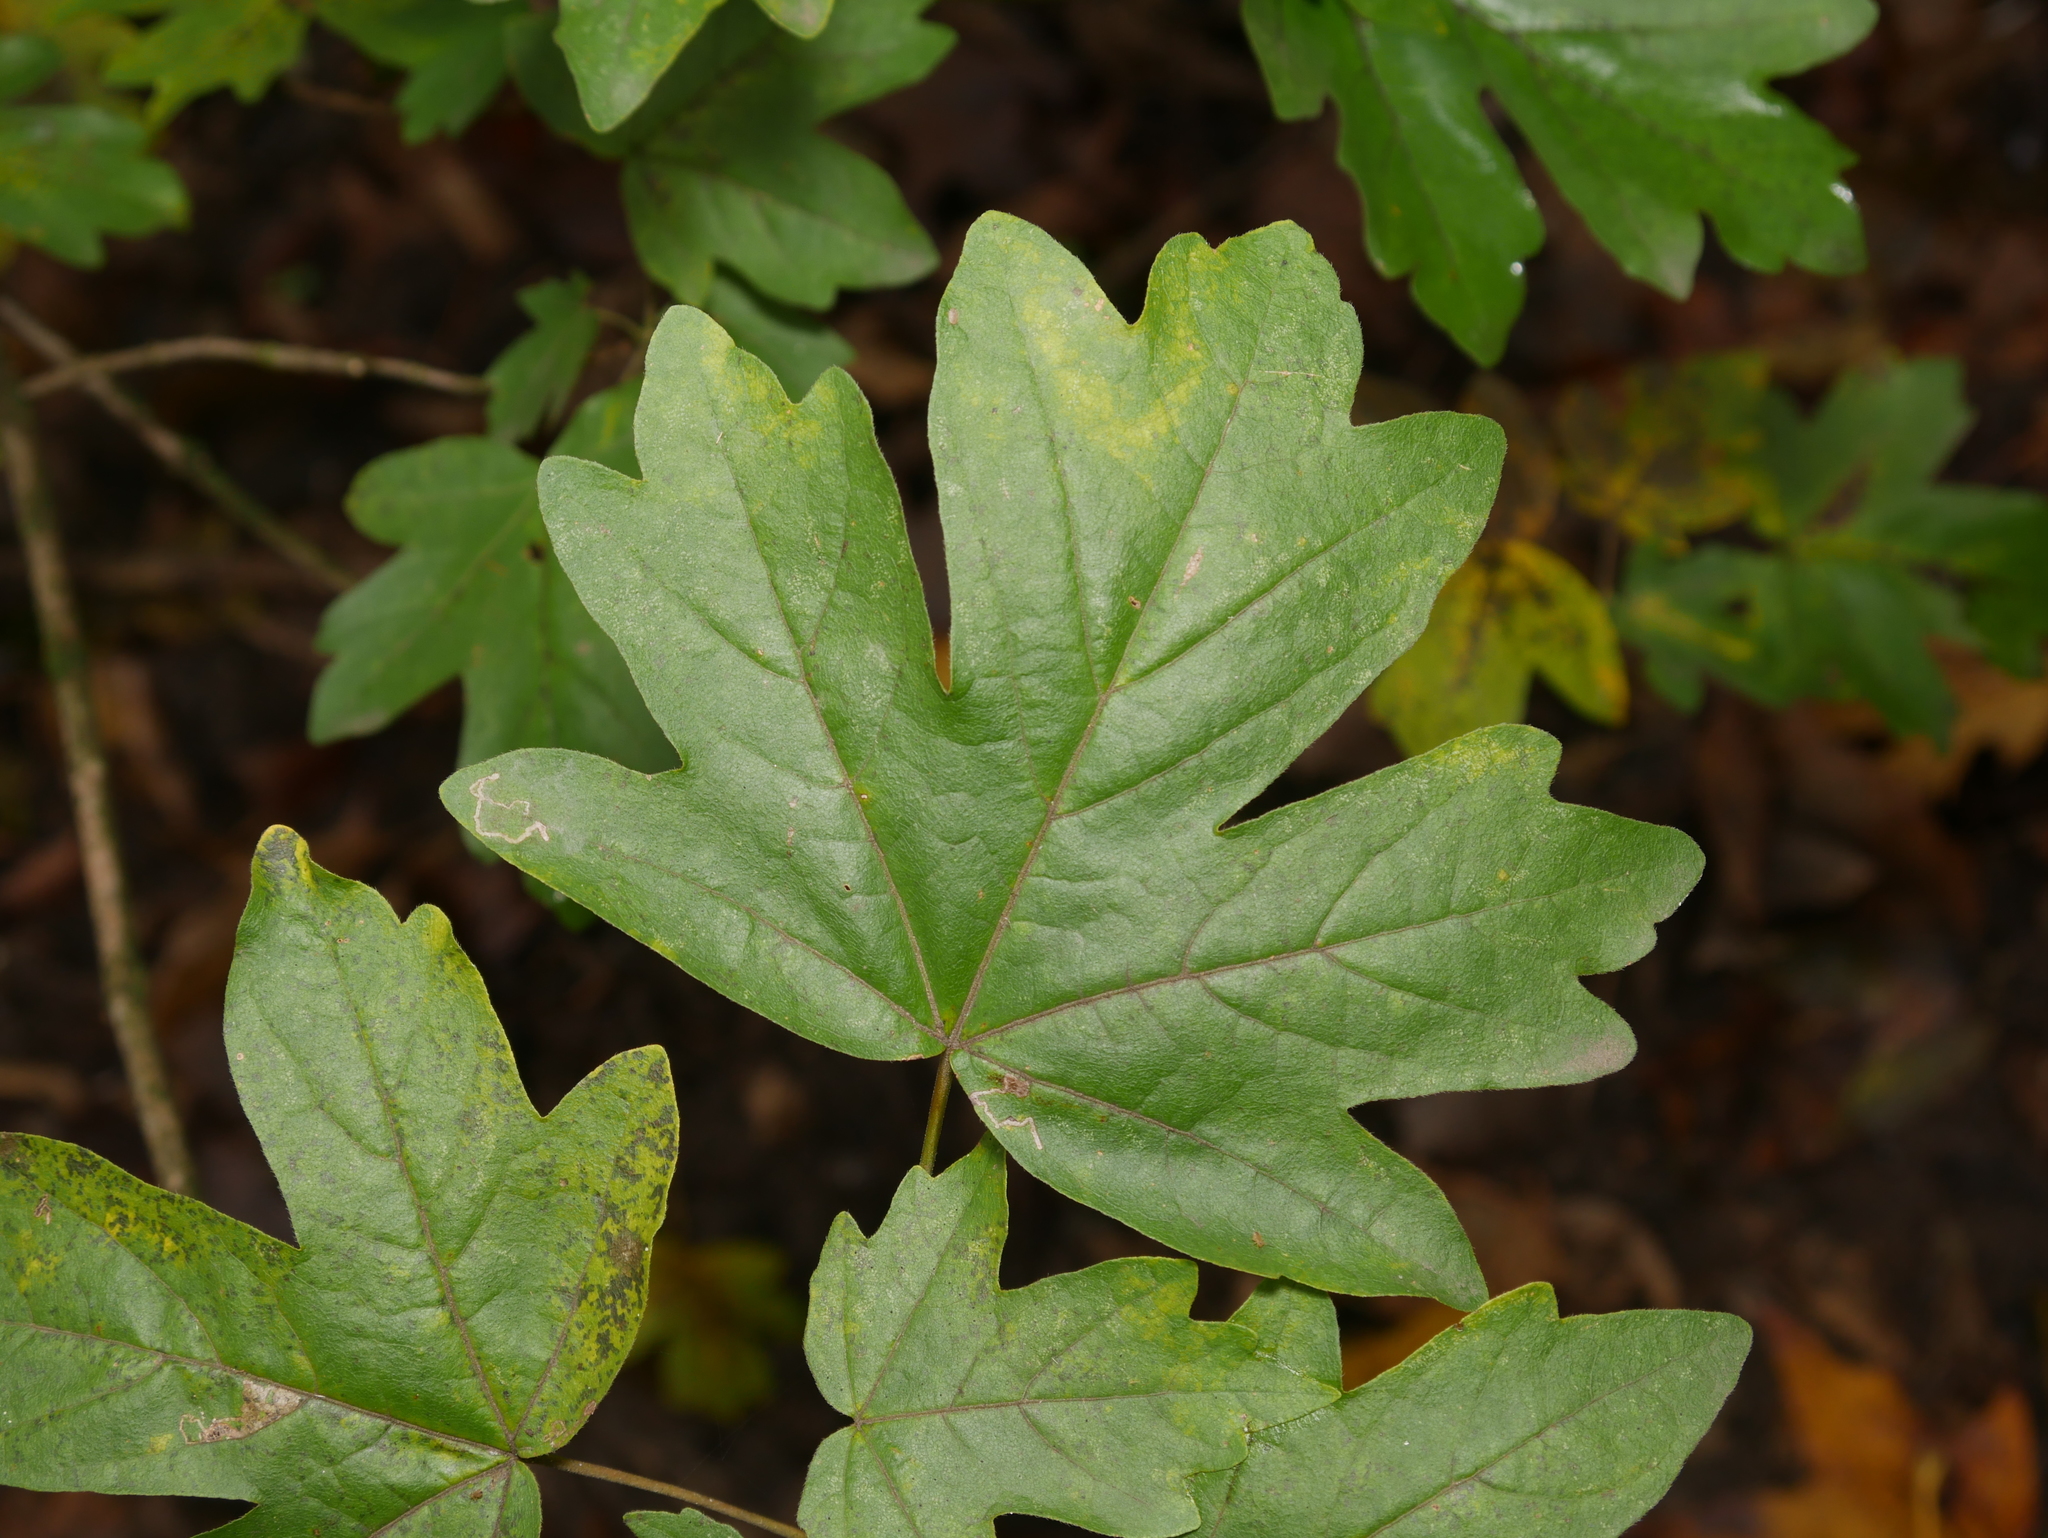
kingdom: Plantae
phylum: Tracheophyta
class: Magnoliopsida
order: Sapindales
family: Sapindaceae
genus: Acer
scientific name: Acer campestre
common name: Field maple
